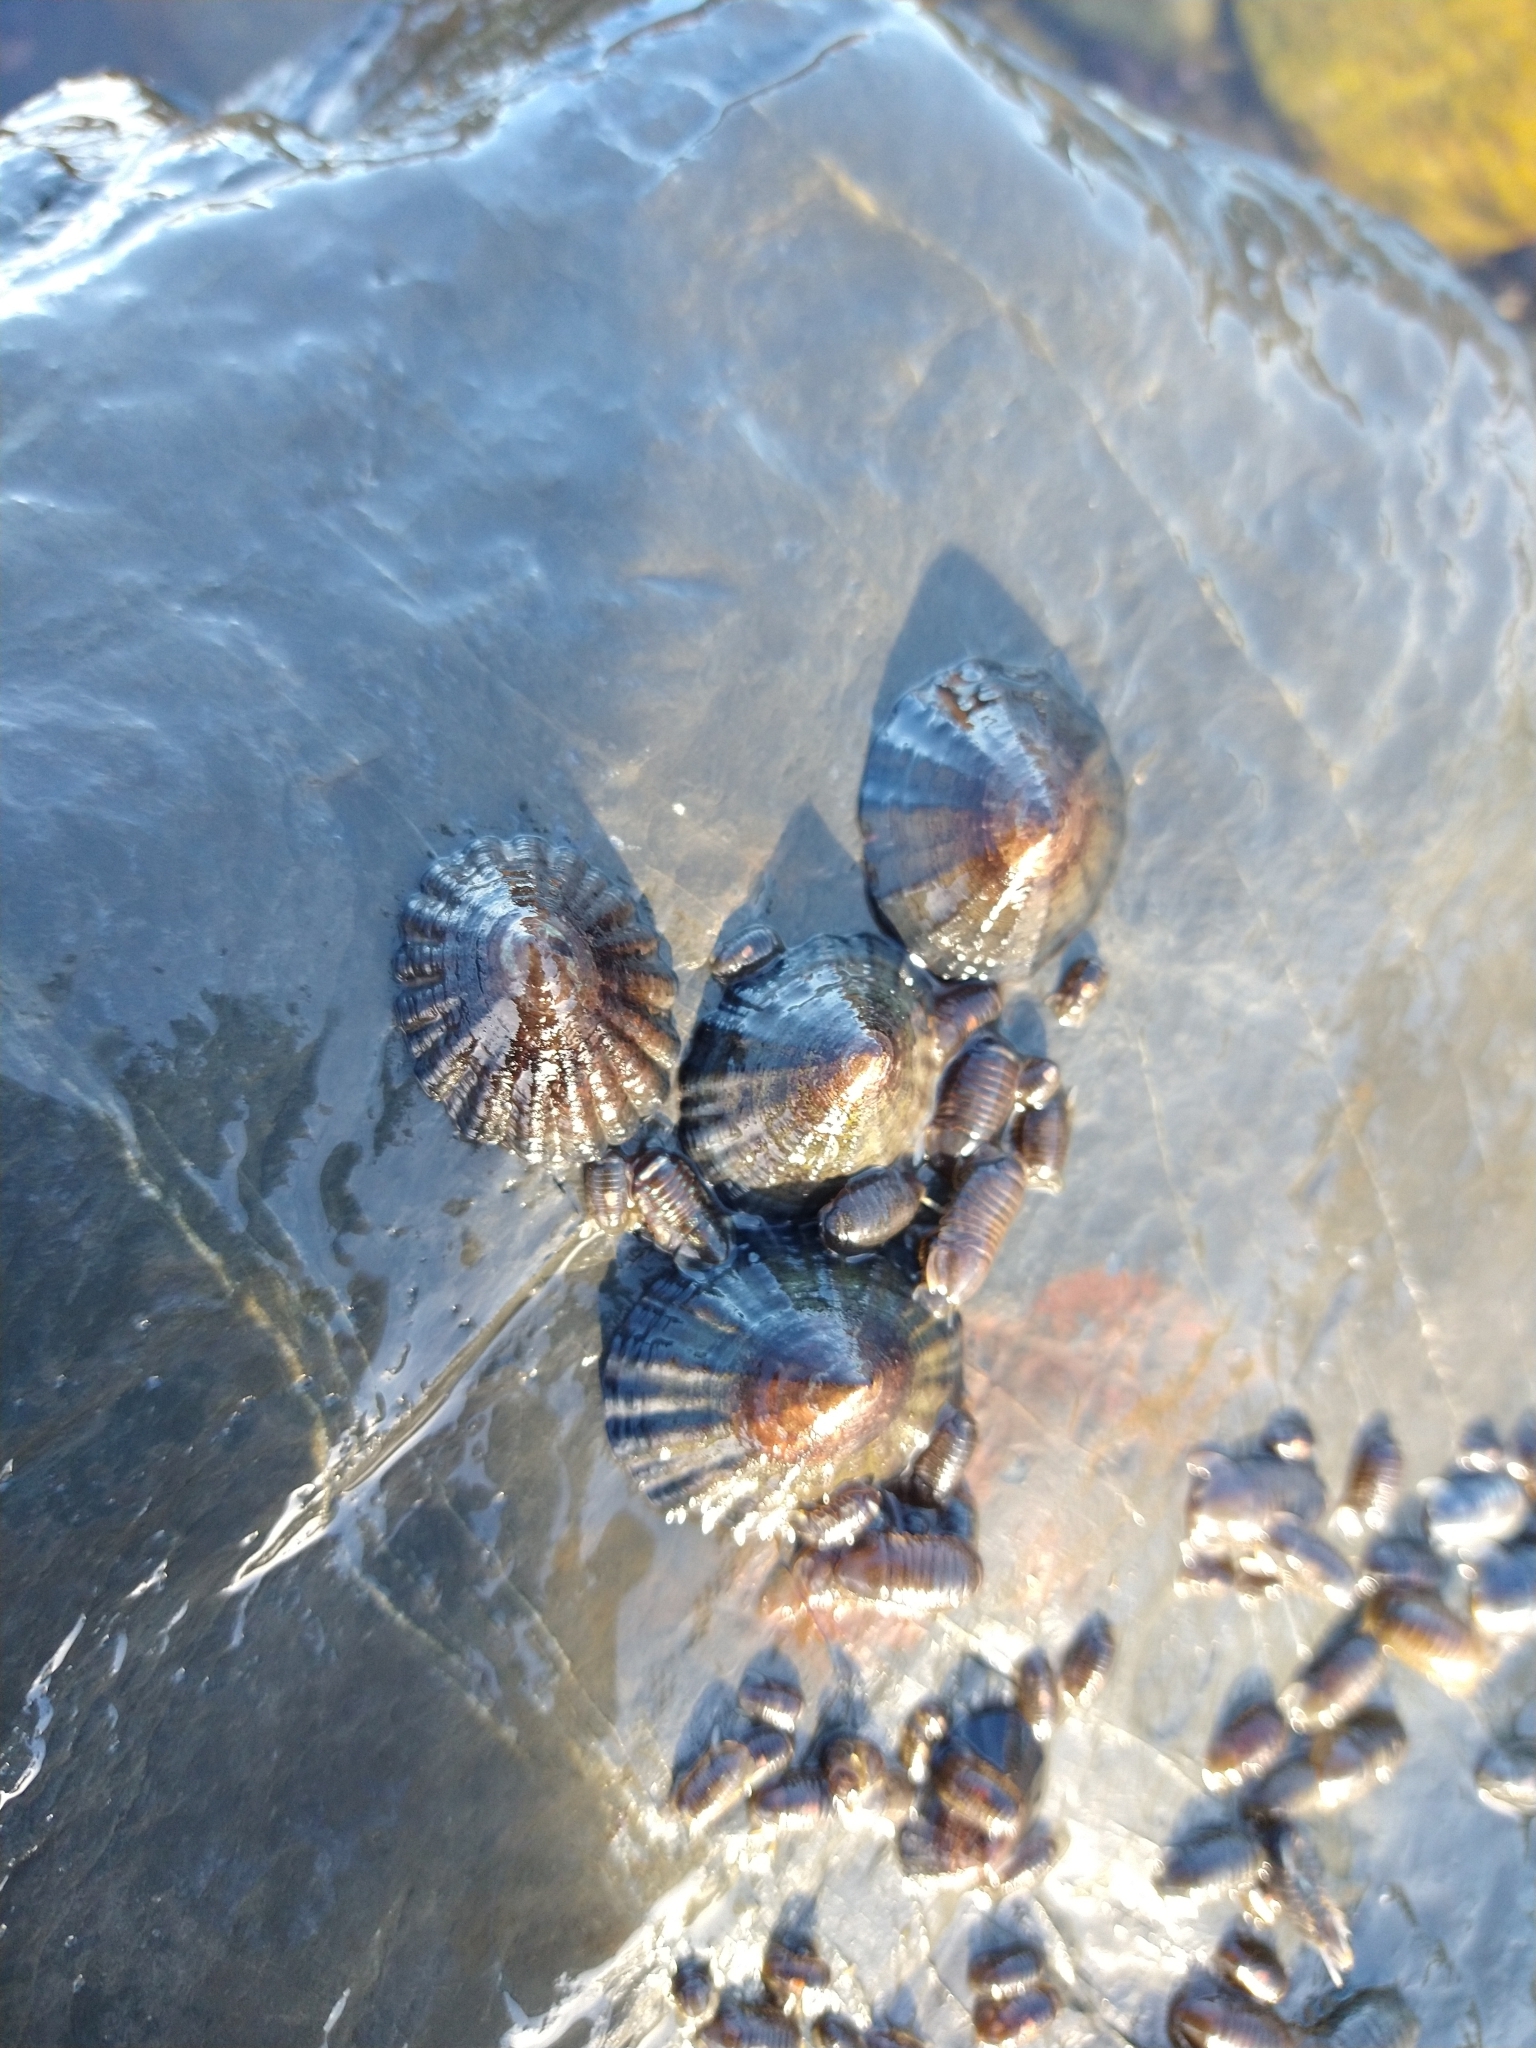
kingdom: Animalia
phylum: Mollusca
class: Gastropoda
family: Nacellidae
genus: Nacella
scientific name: Nacella magellanica
